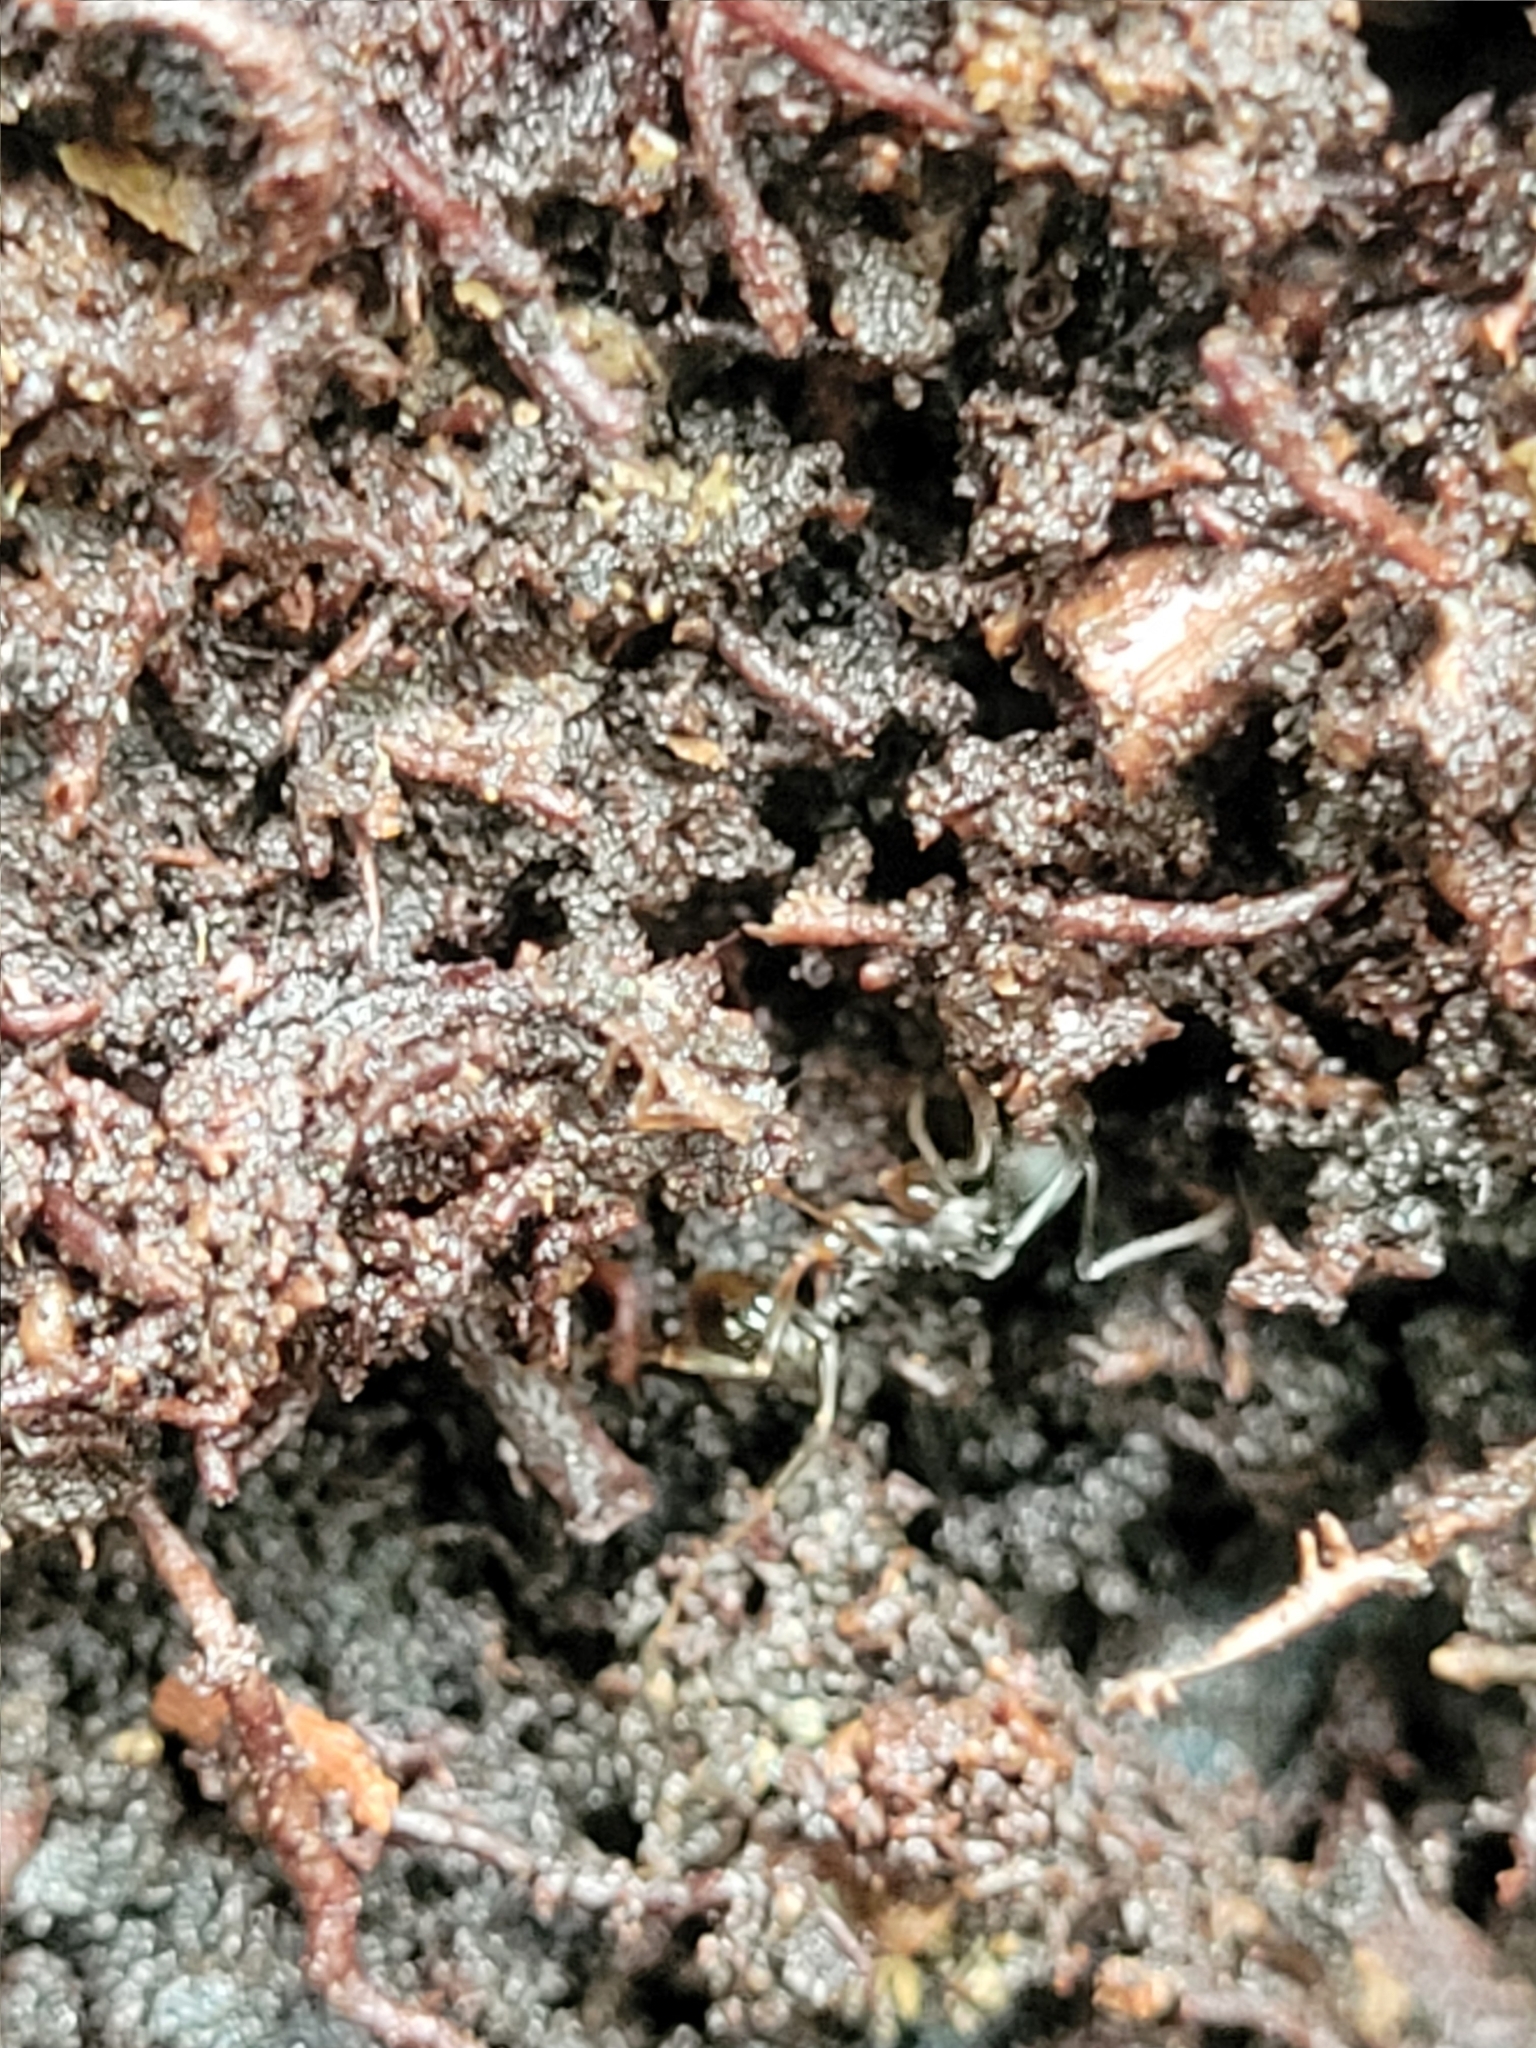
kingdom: Animalia
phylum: Arthropoda
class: Insecta
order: Hymenoptera
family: Formicidae
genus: Aphaenogaster
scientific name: Aphaenogaster picea
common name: Pitch-black collared ant
